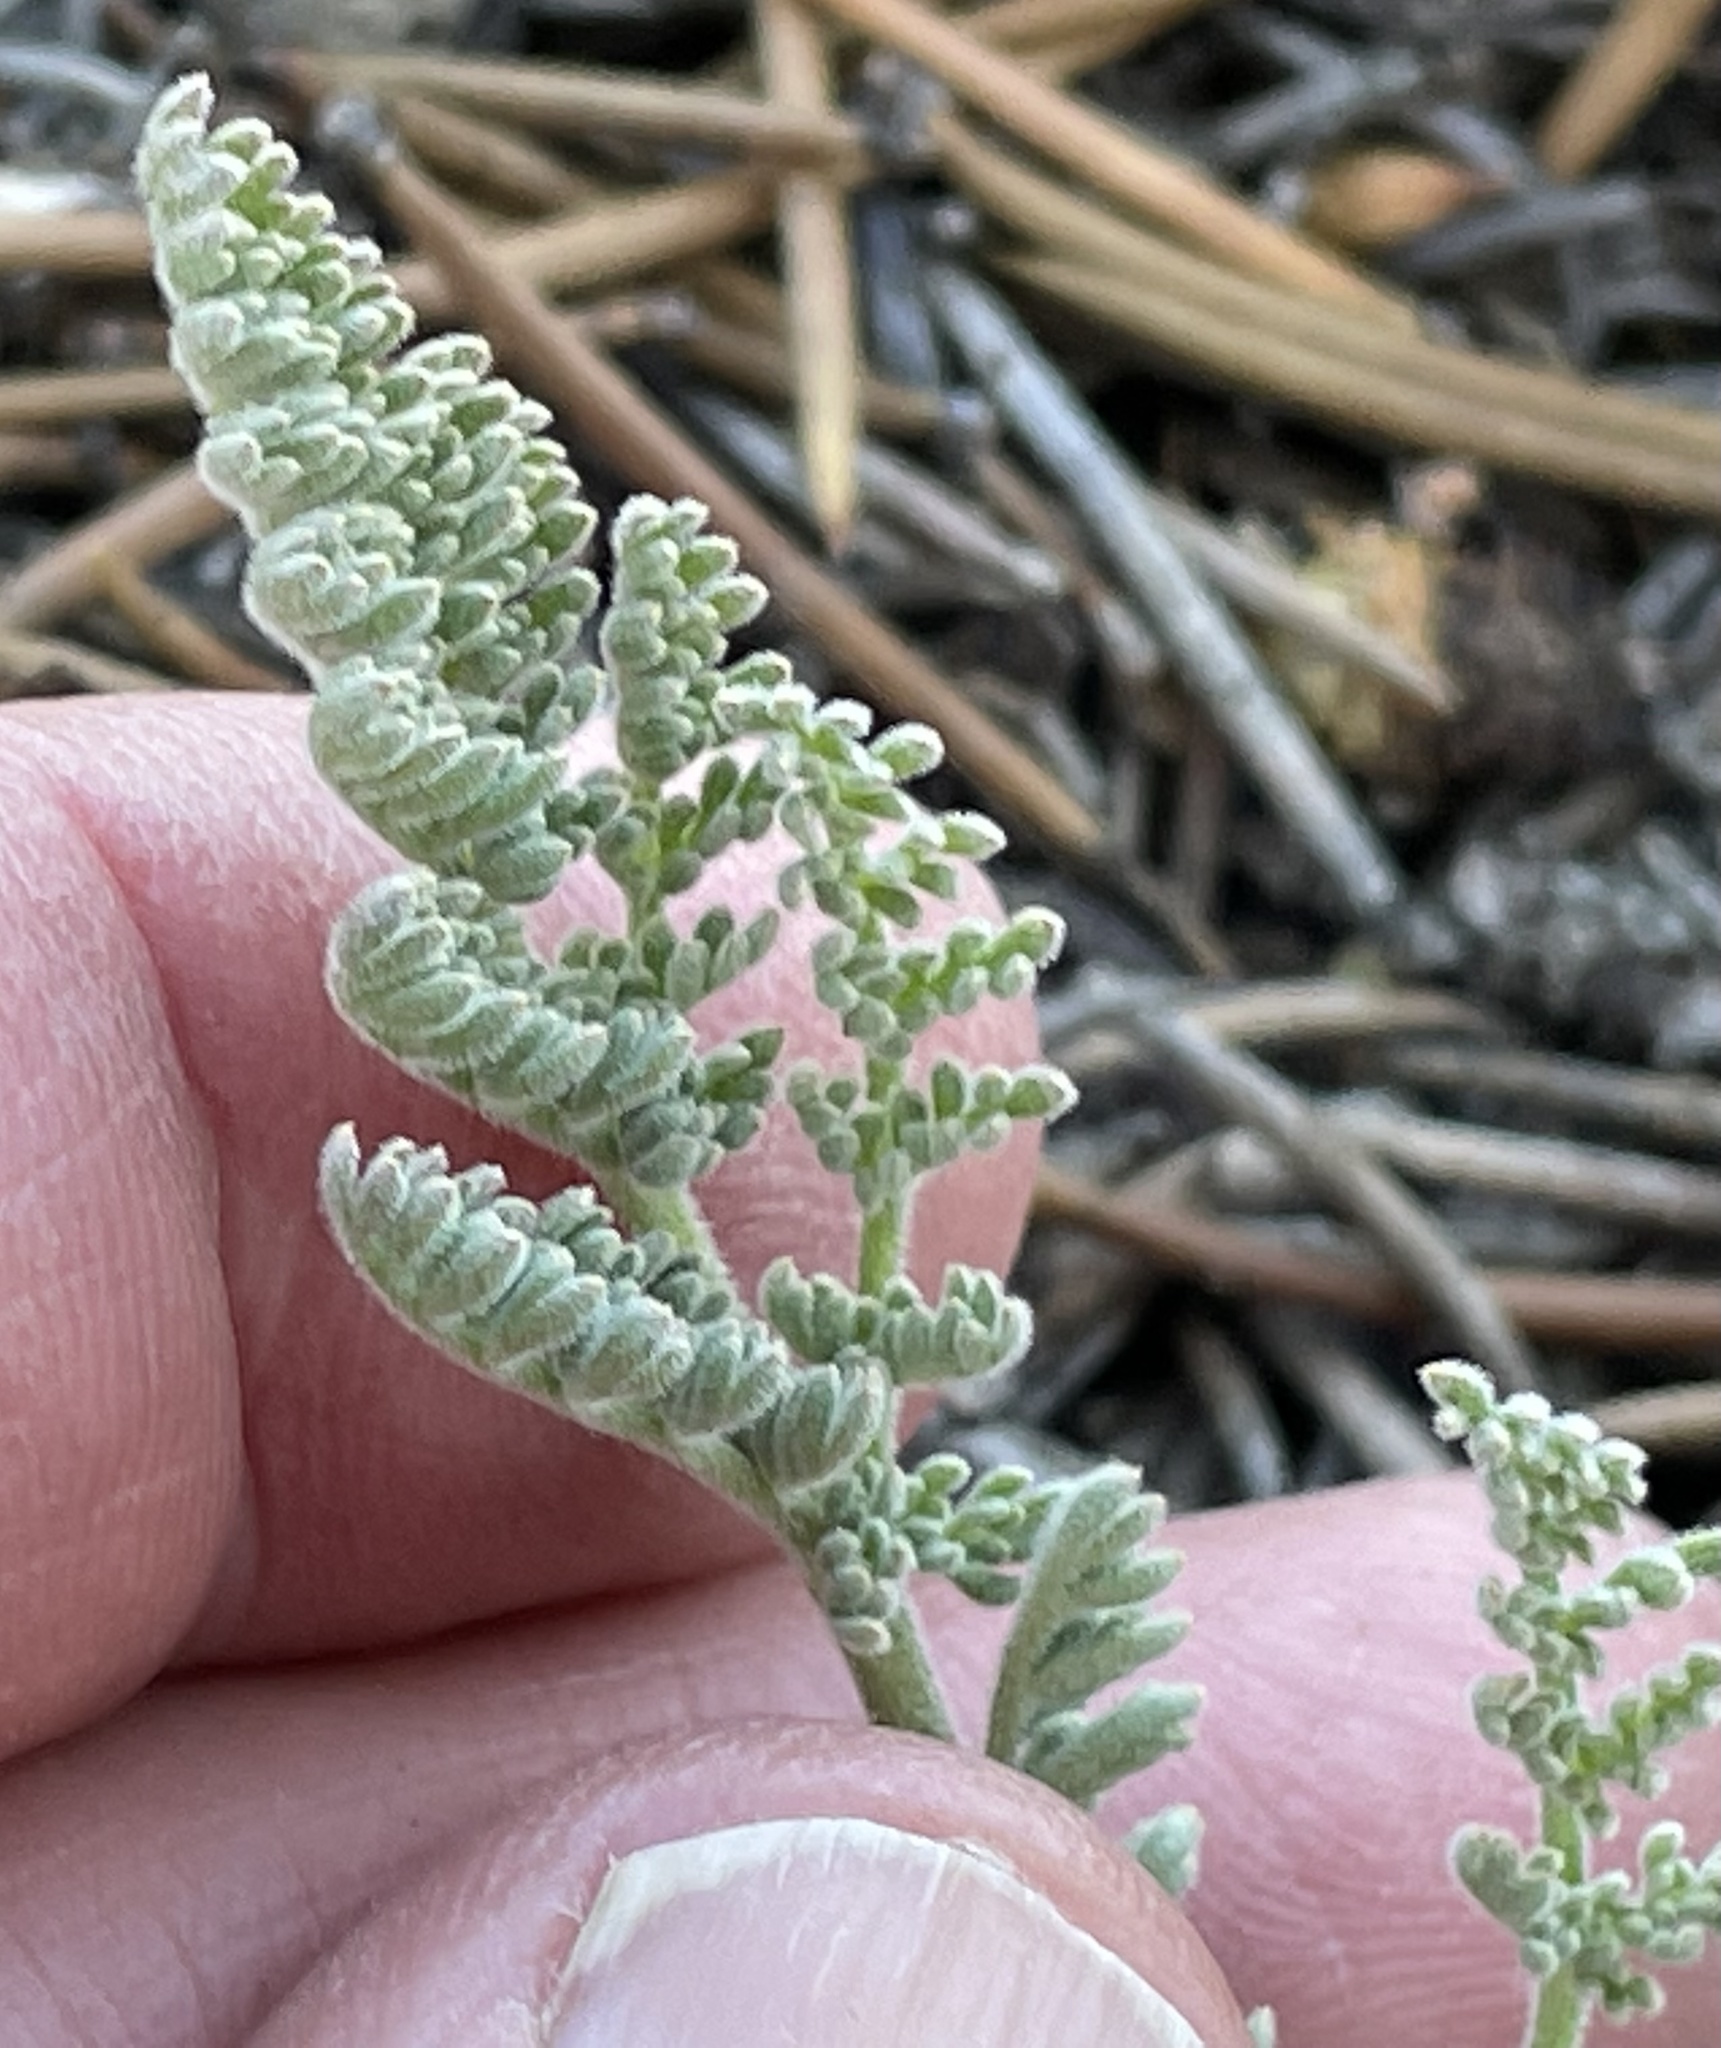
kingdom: Plantae
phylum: Tracheophyta
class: Magnoliopsida
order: Apiales
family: Apiaceae
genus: Lomatium
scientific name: Lomatium foeniculaceum
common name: Desert-parsley
